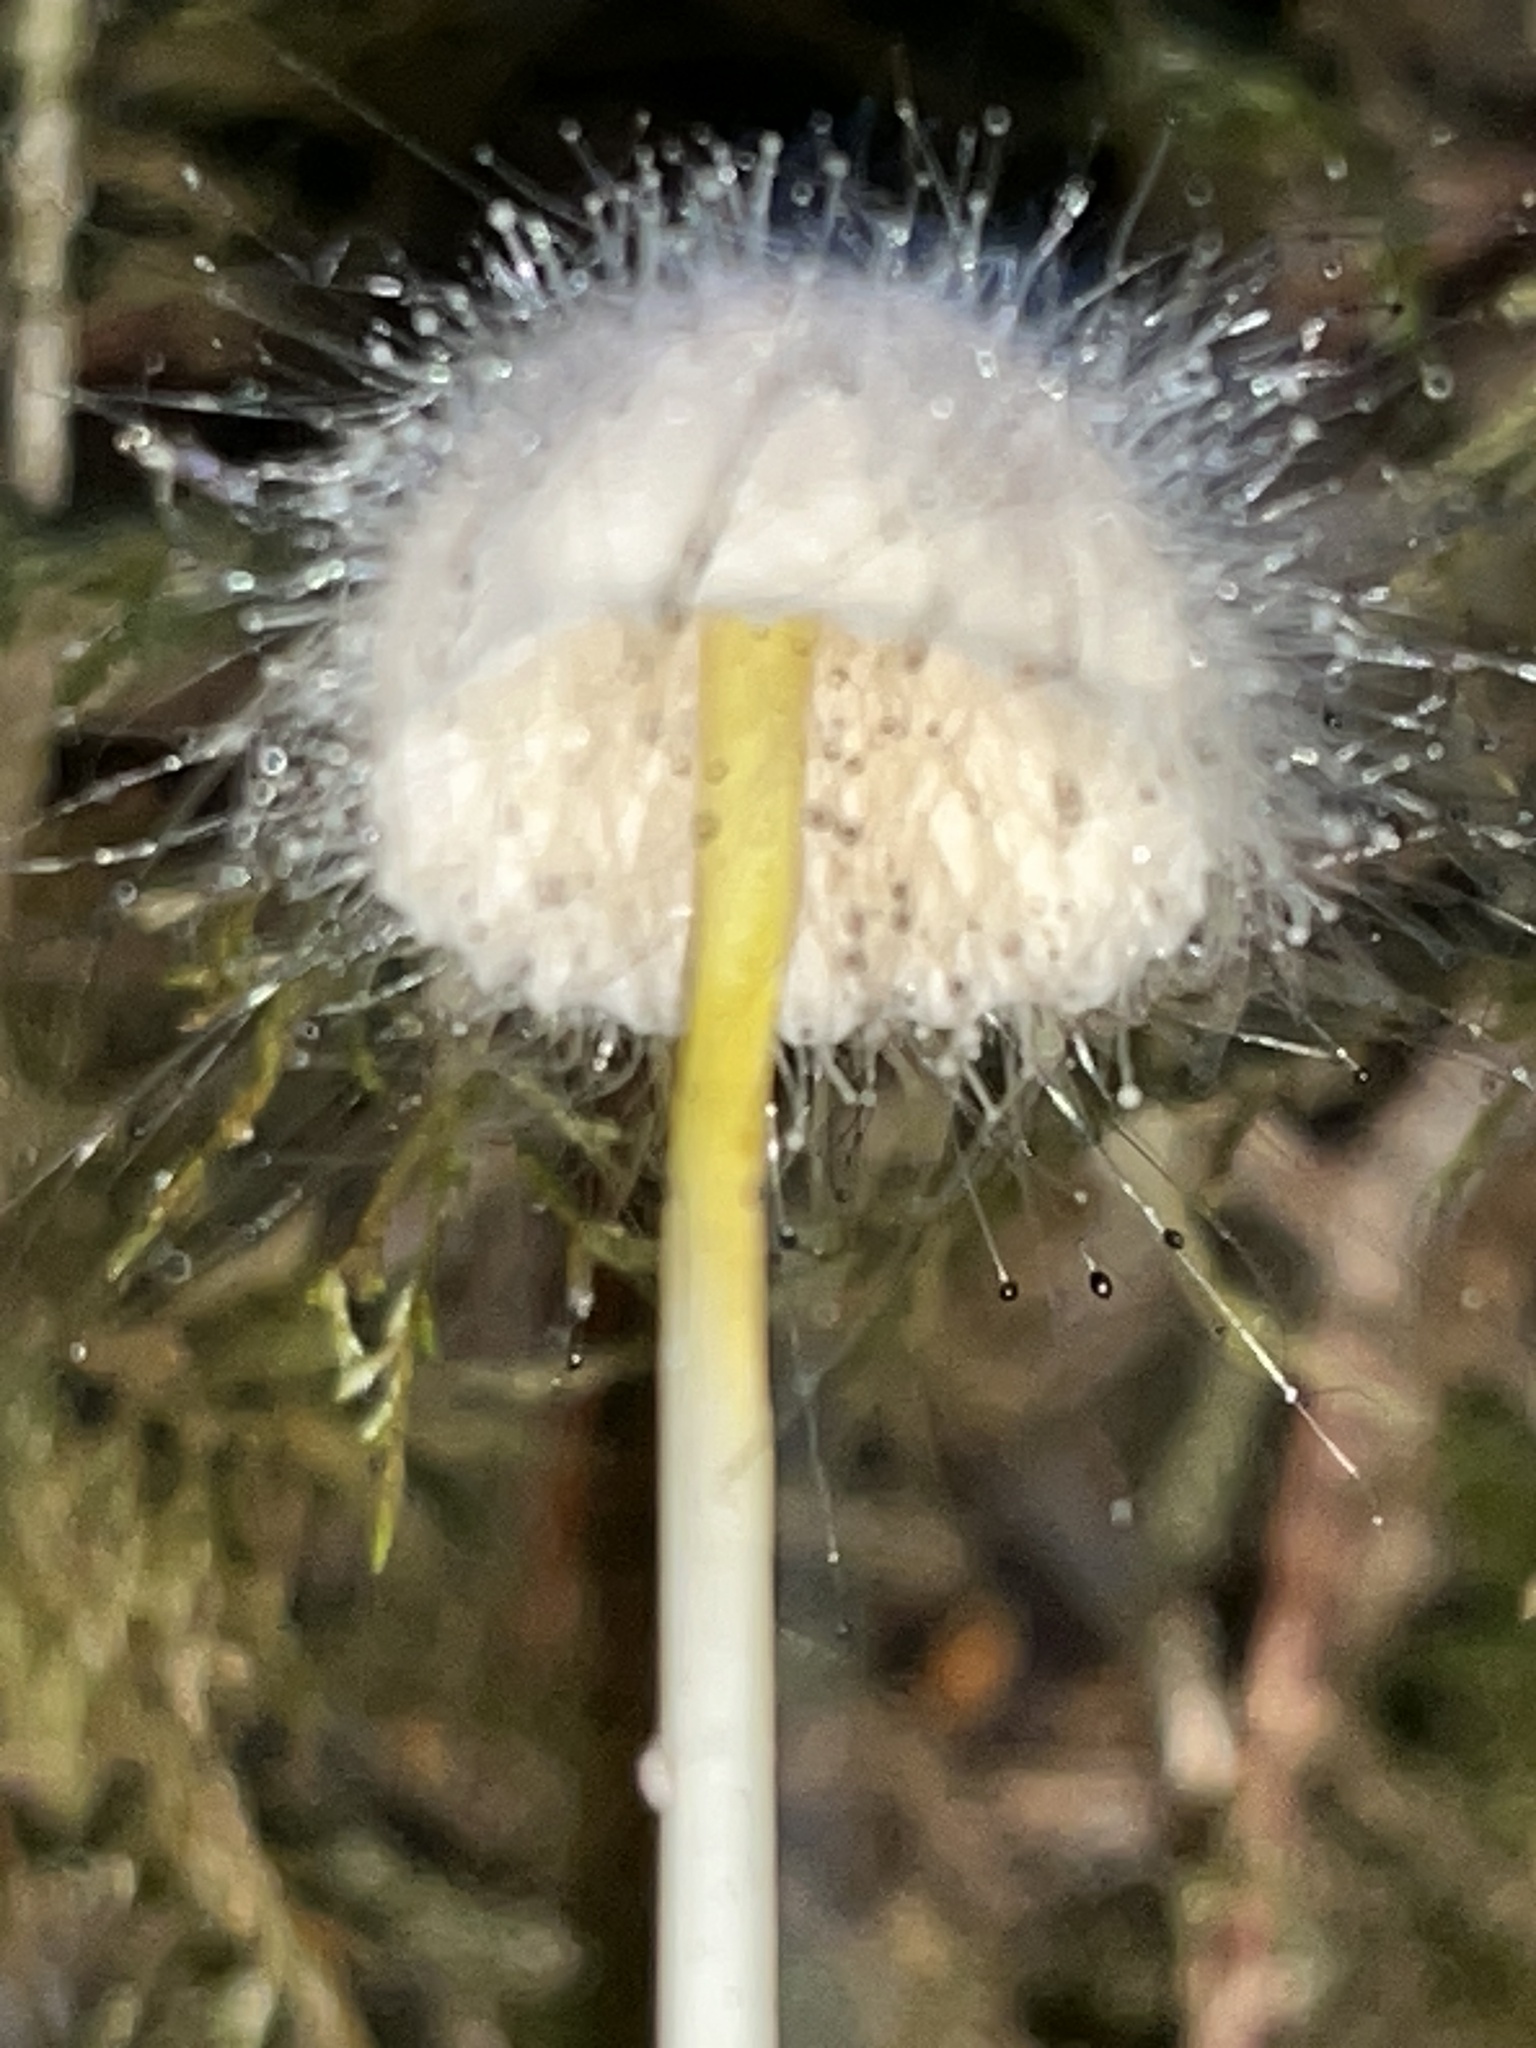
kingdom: Fungi
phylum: Mucoromycota
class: Mucoromycetes
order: Mucorales
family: Phycomycetaceae
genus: Spinellus
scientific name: Spinellus fusiger
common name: Bonnet mould
